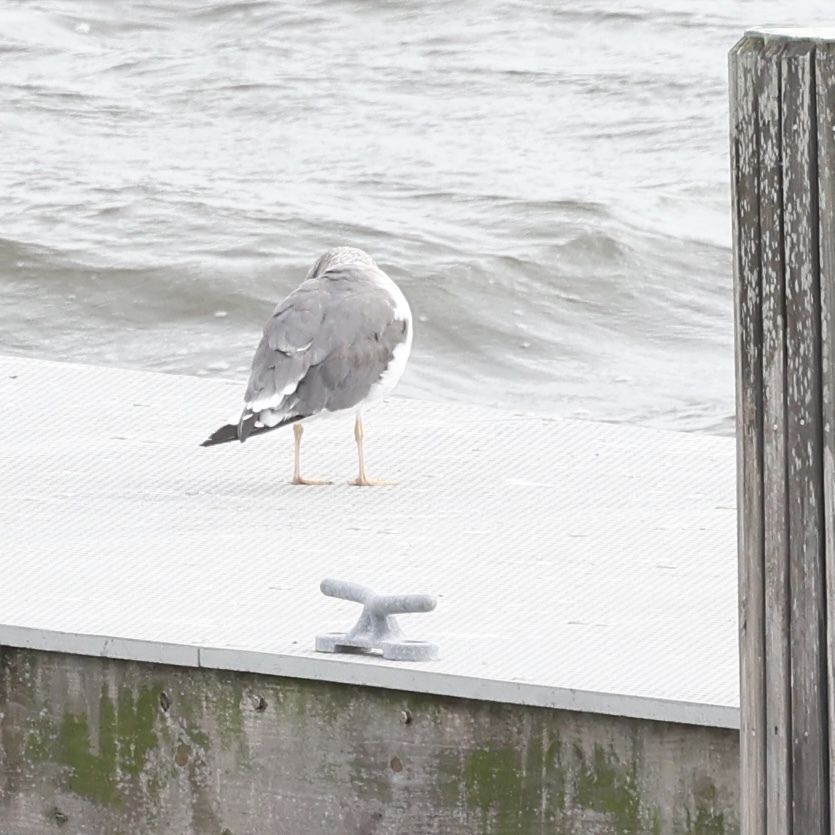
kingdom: Animalia
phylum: Chordata
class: Aves
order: Charadriiformes
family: Laridae
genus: Larus
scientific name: Larus fuscus
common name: Lesser black-backed gull
